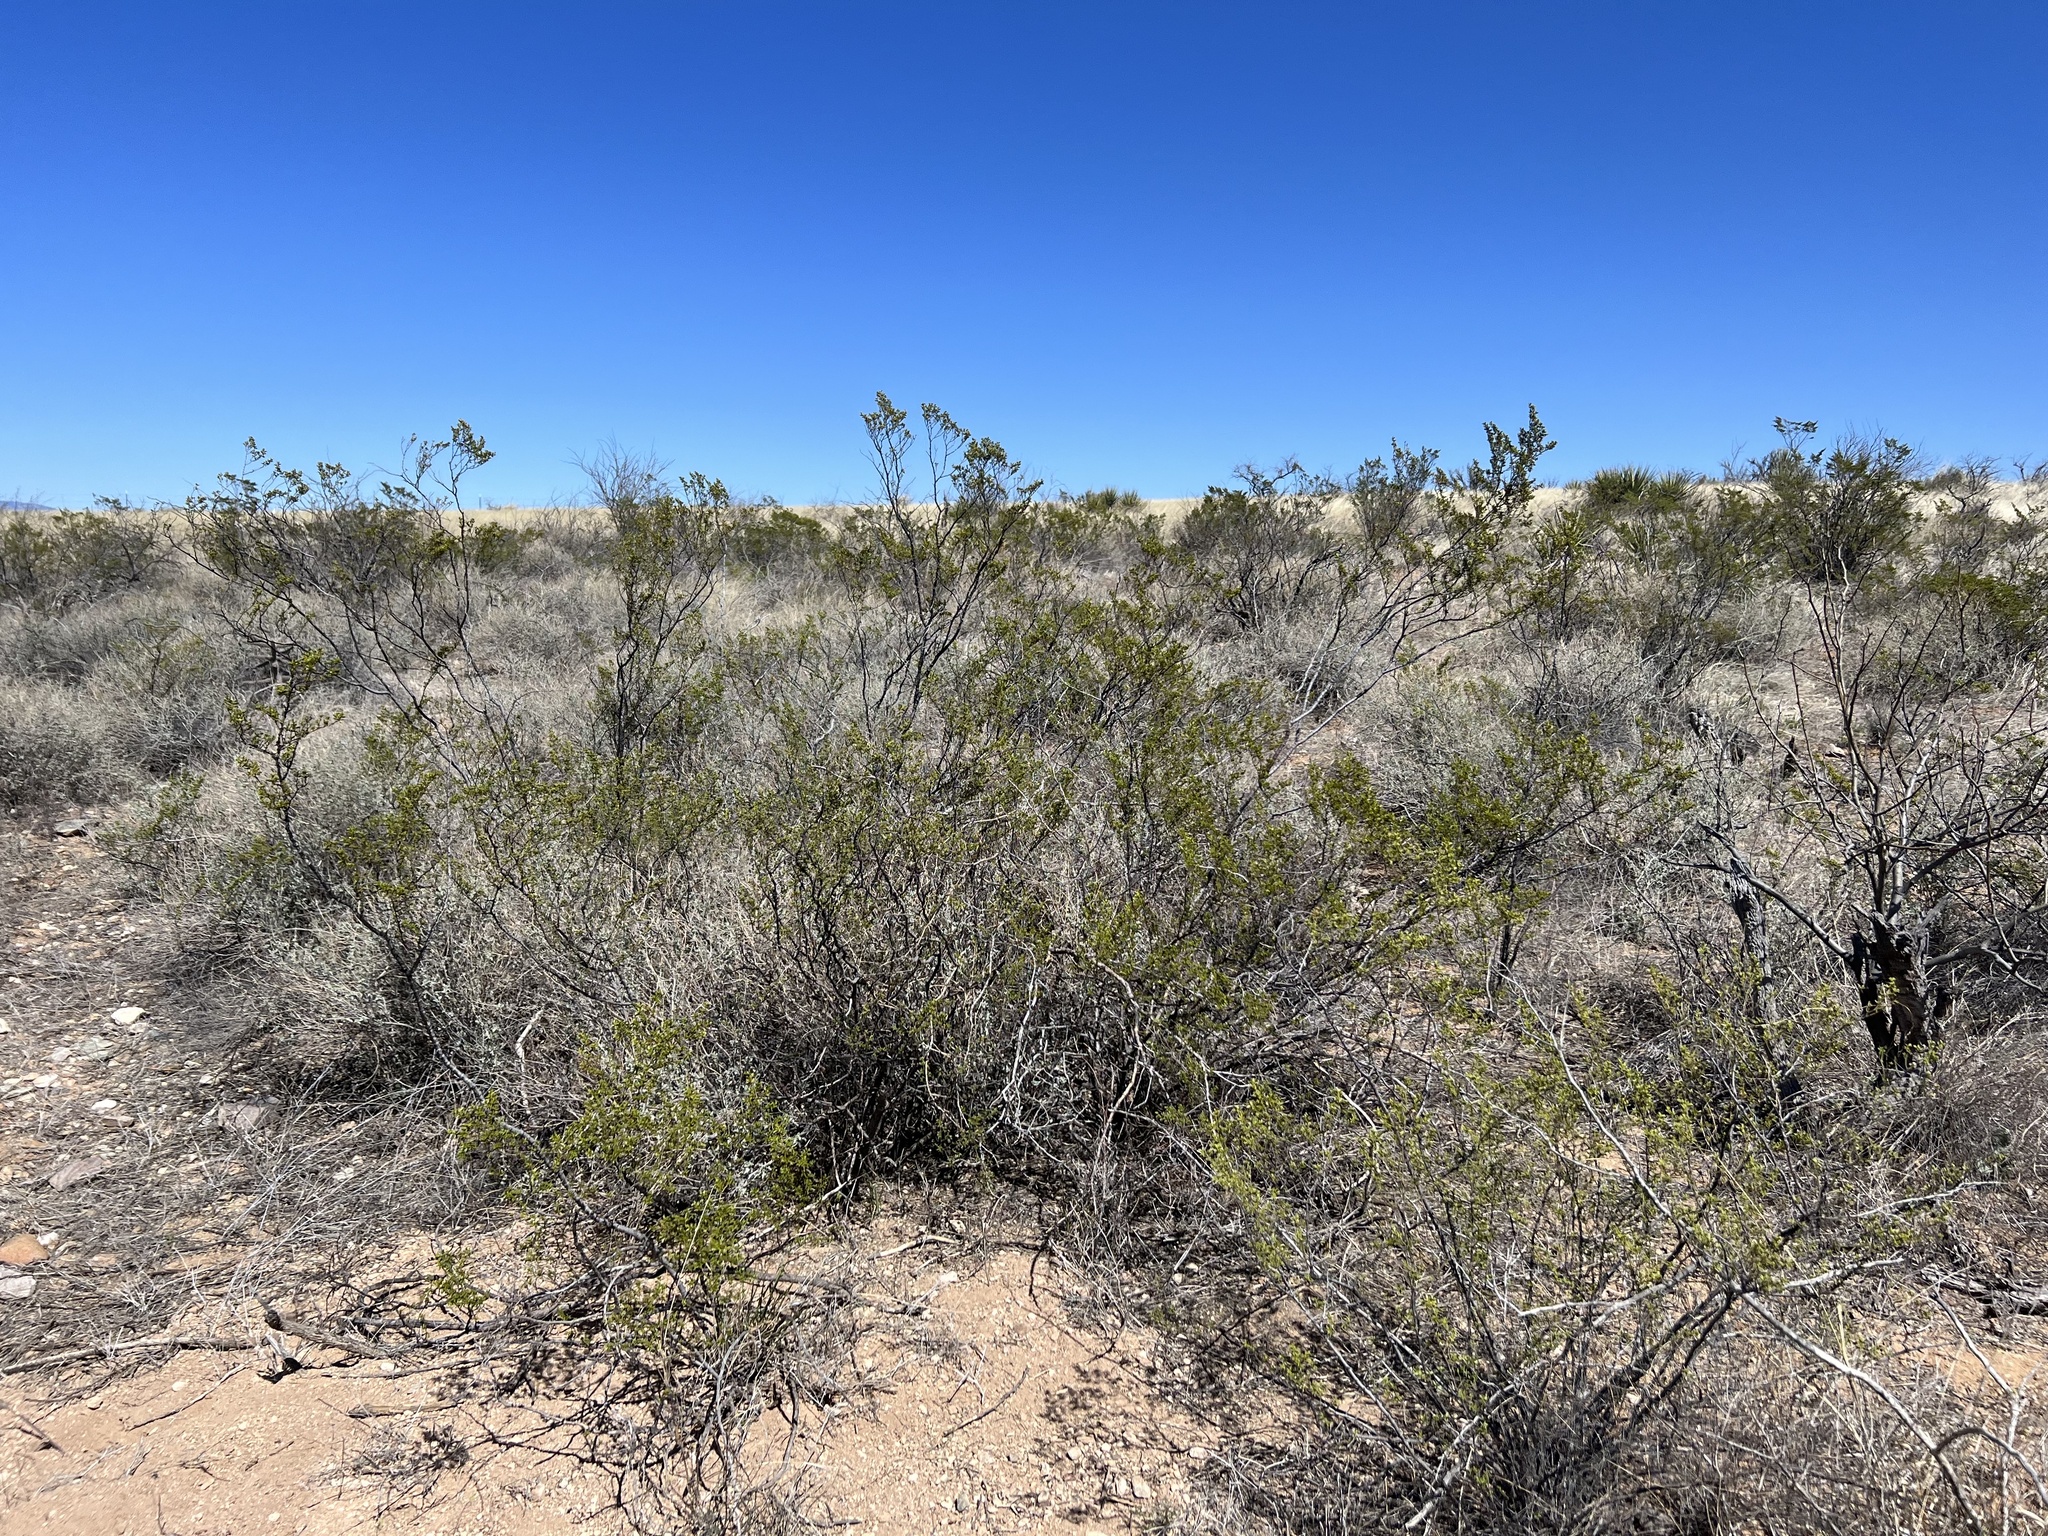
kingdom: Plantae
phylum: Tracheophyta
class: Magnoliopsida
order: Zygophyllales
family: Zygophyllaceae
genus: Larrea
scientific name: Larrea tridentata
